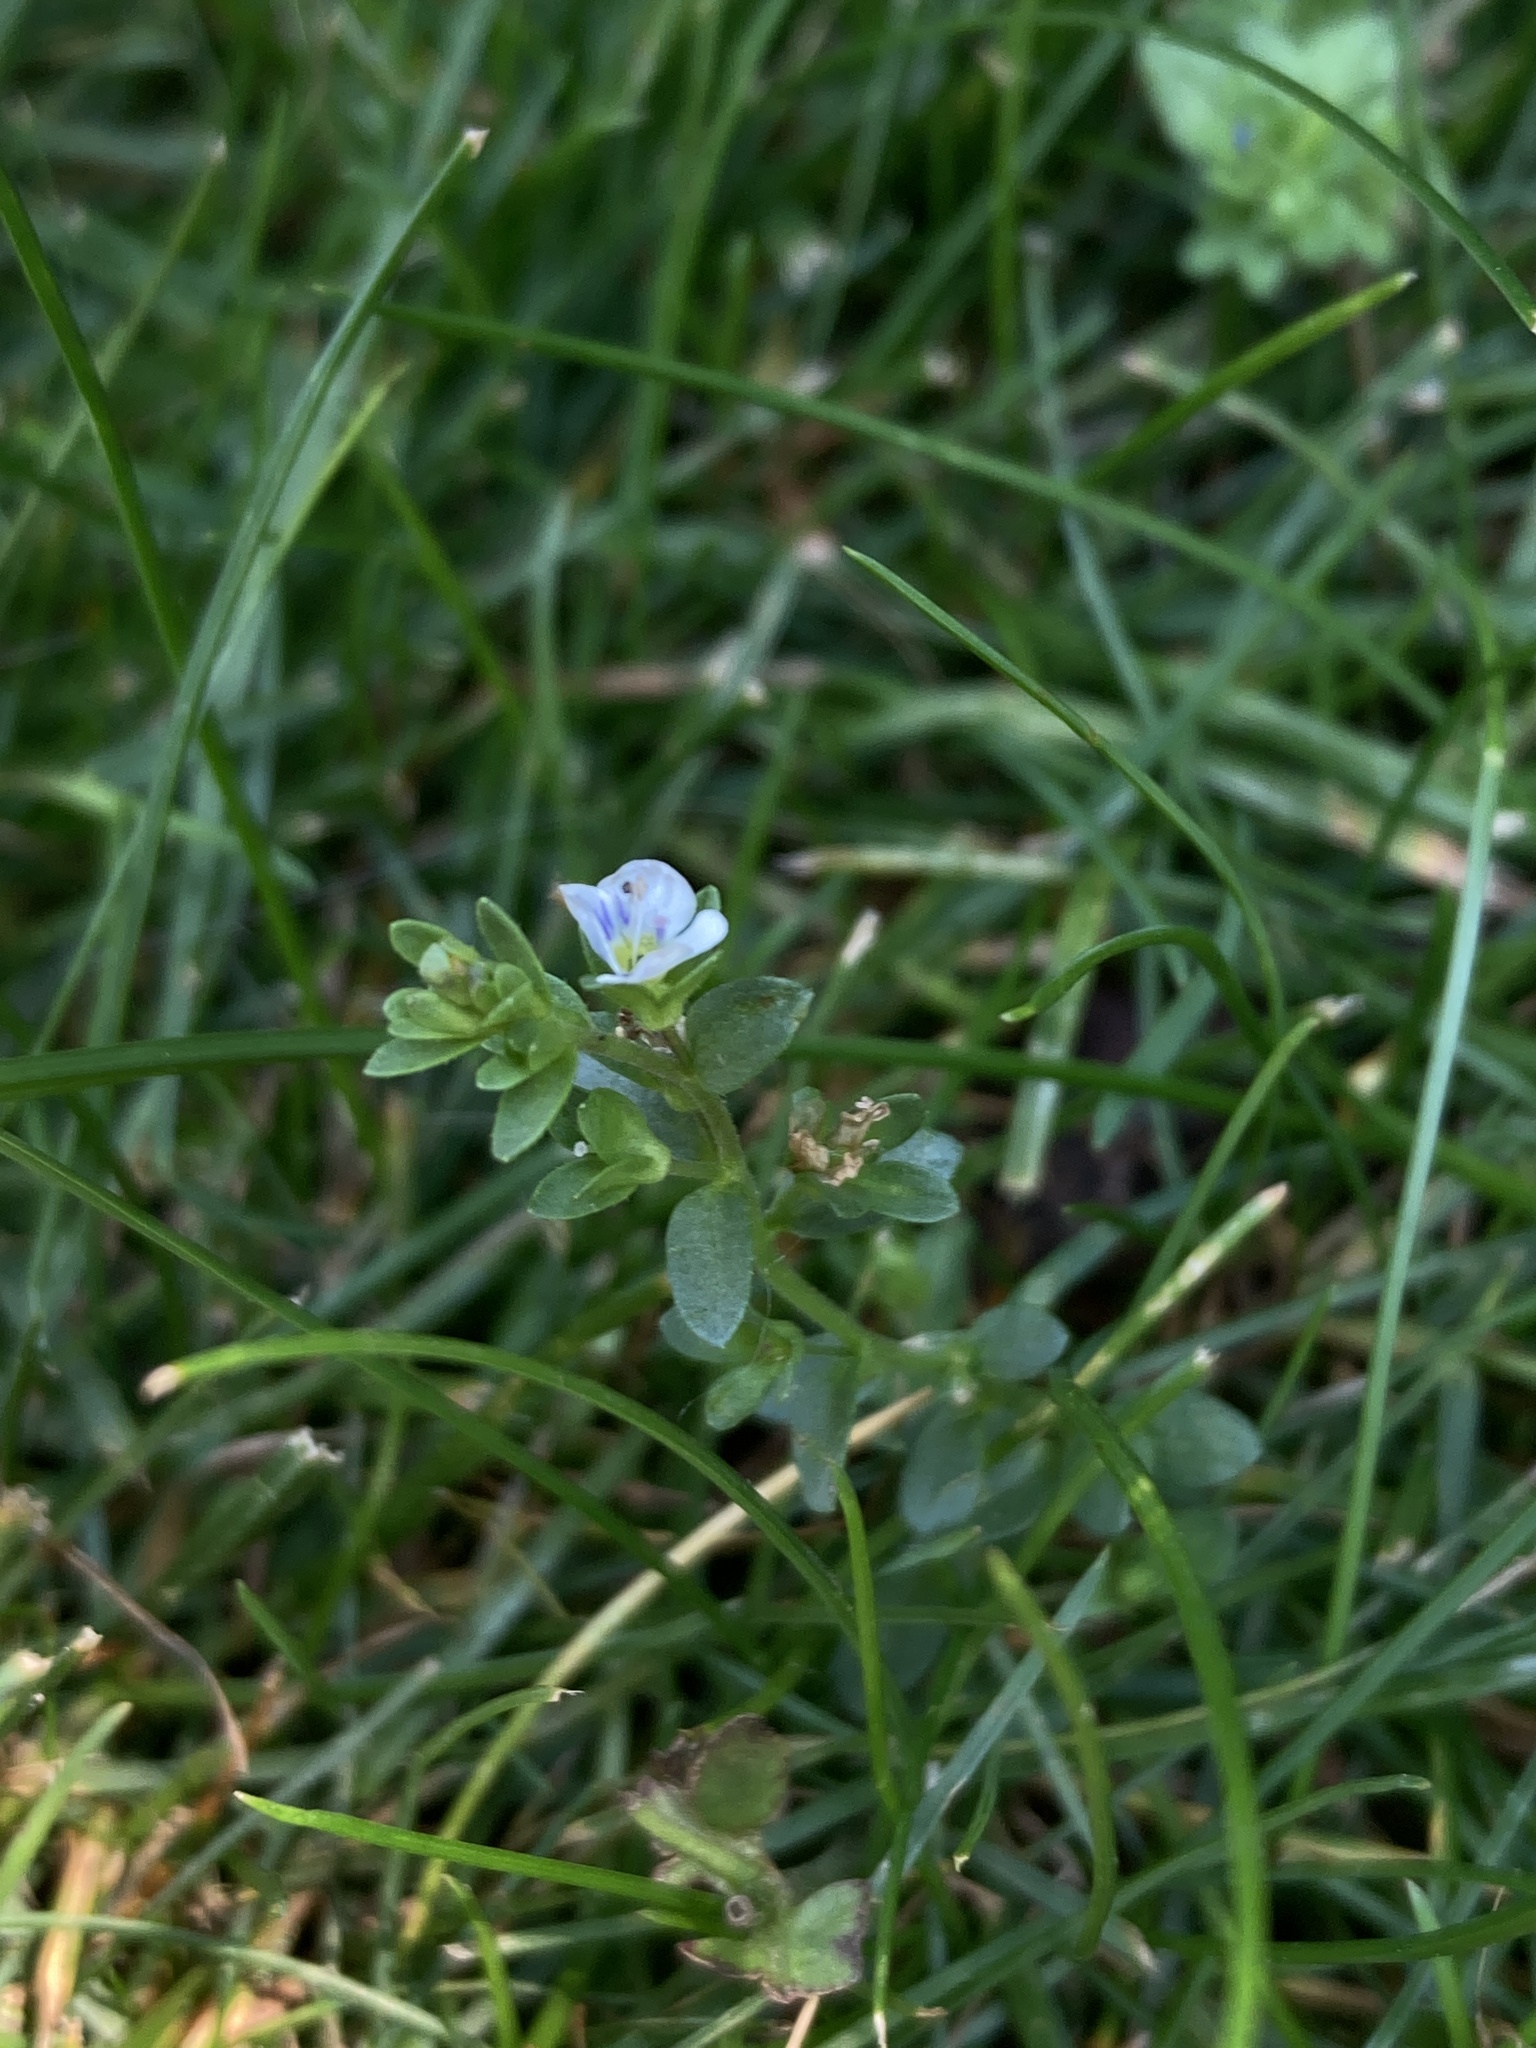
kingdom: Plantae
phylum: Tracheophyta
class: Magnoliopsida
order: Lamiales
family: Plantaginaceae
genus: Veronica
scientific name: Veronica serpyllifolia
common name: Thyme-leaved speedwell
